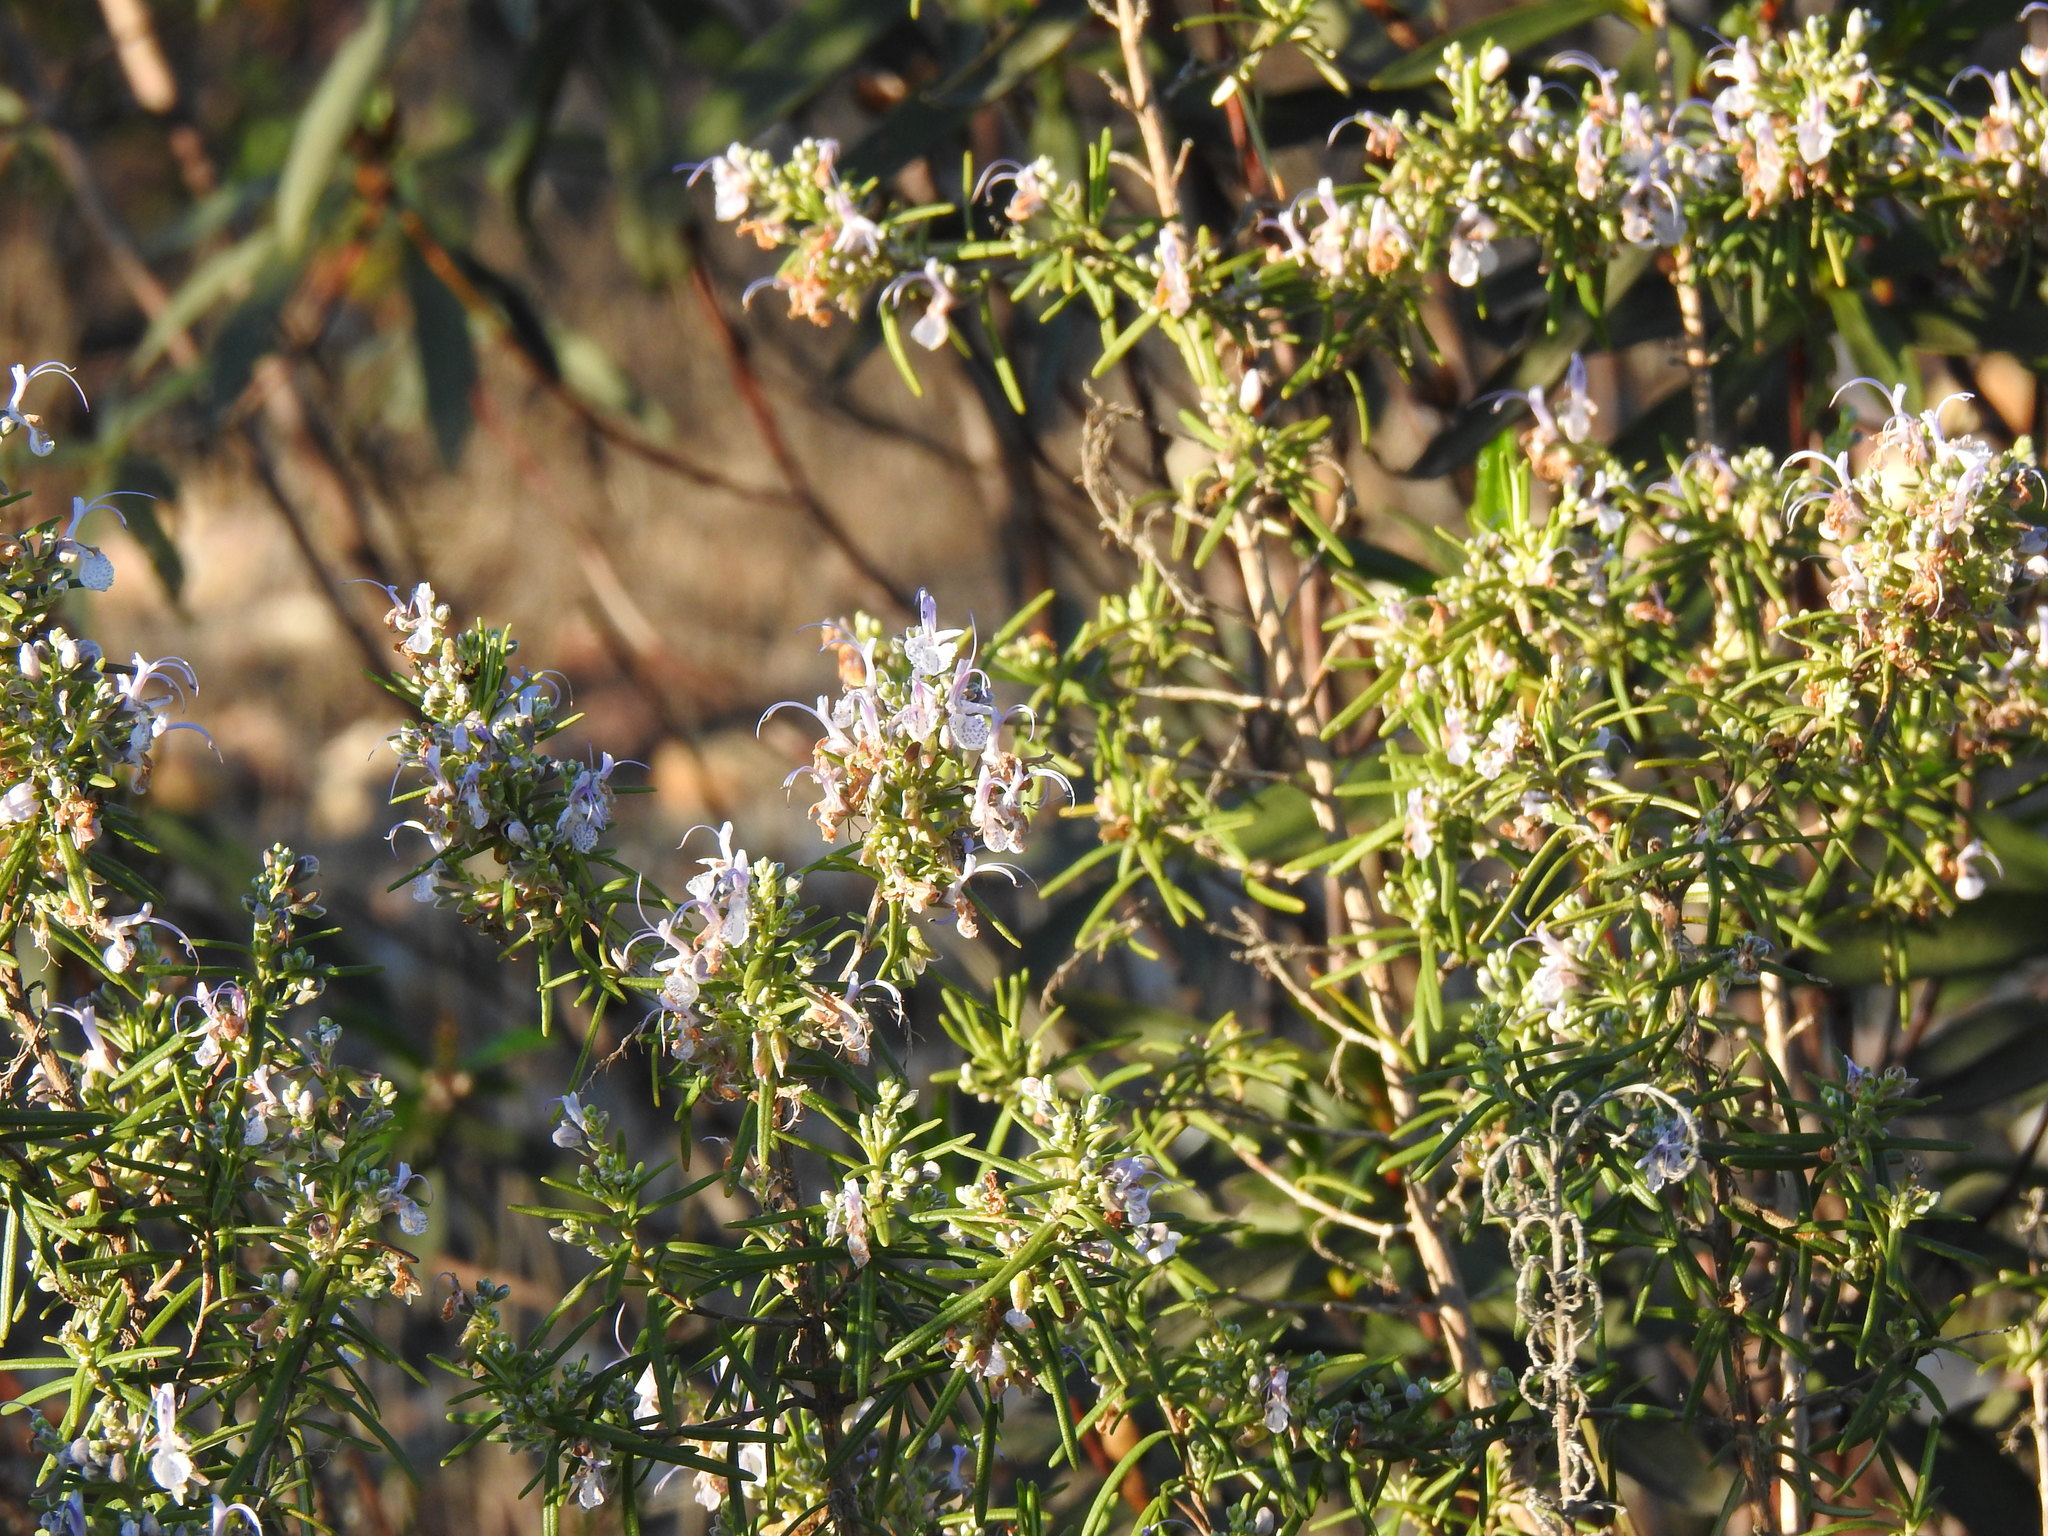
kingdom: Plantae
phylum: Tracheophyta
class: Magnoliopsida
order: Lamiales
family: Lamiaceae
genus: Salvia
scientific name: Salvia rosmarinus
